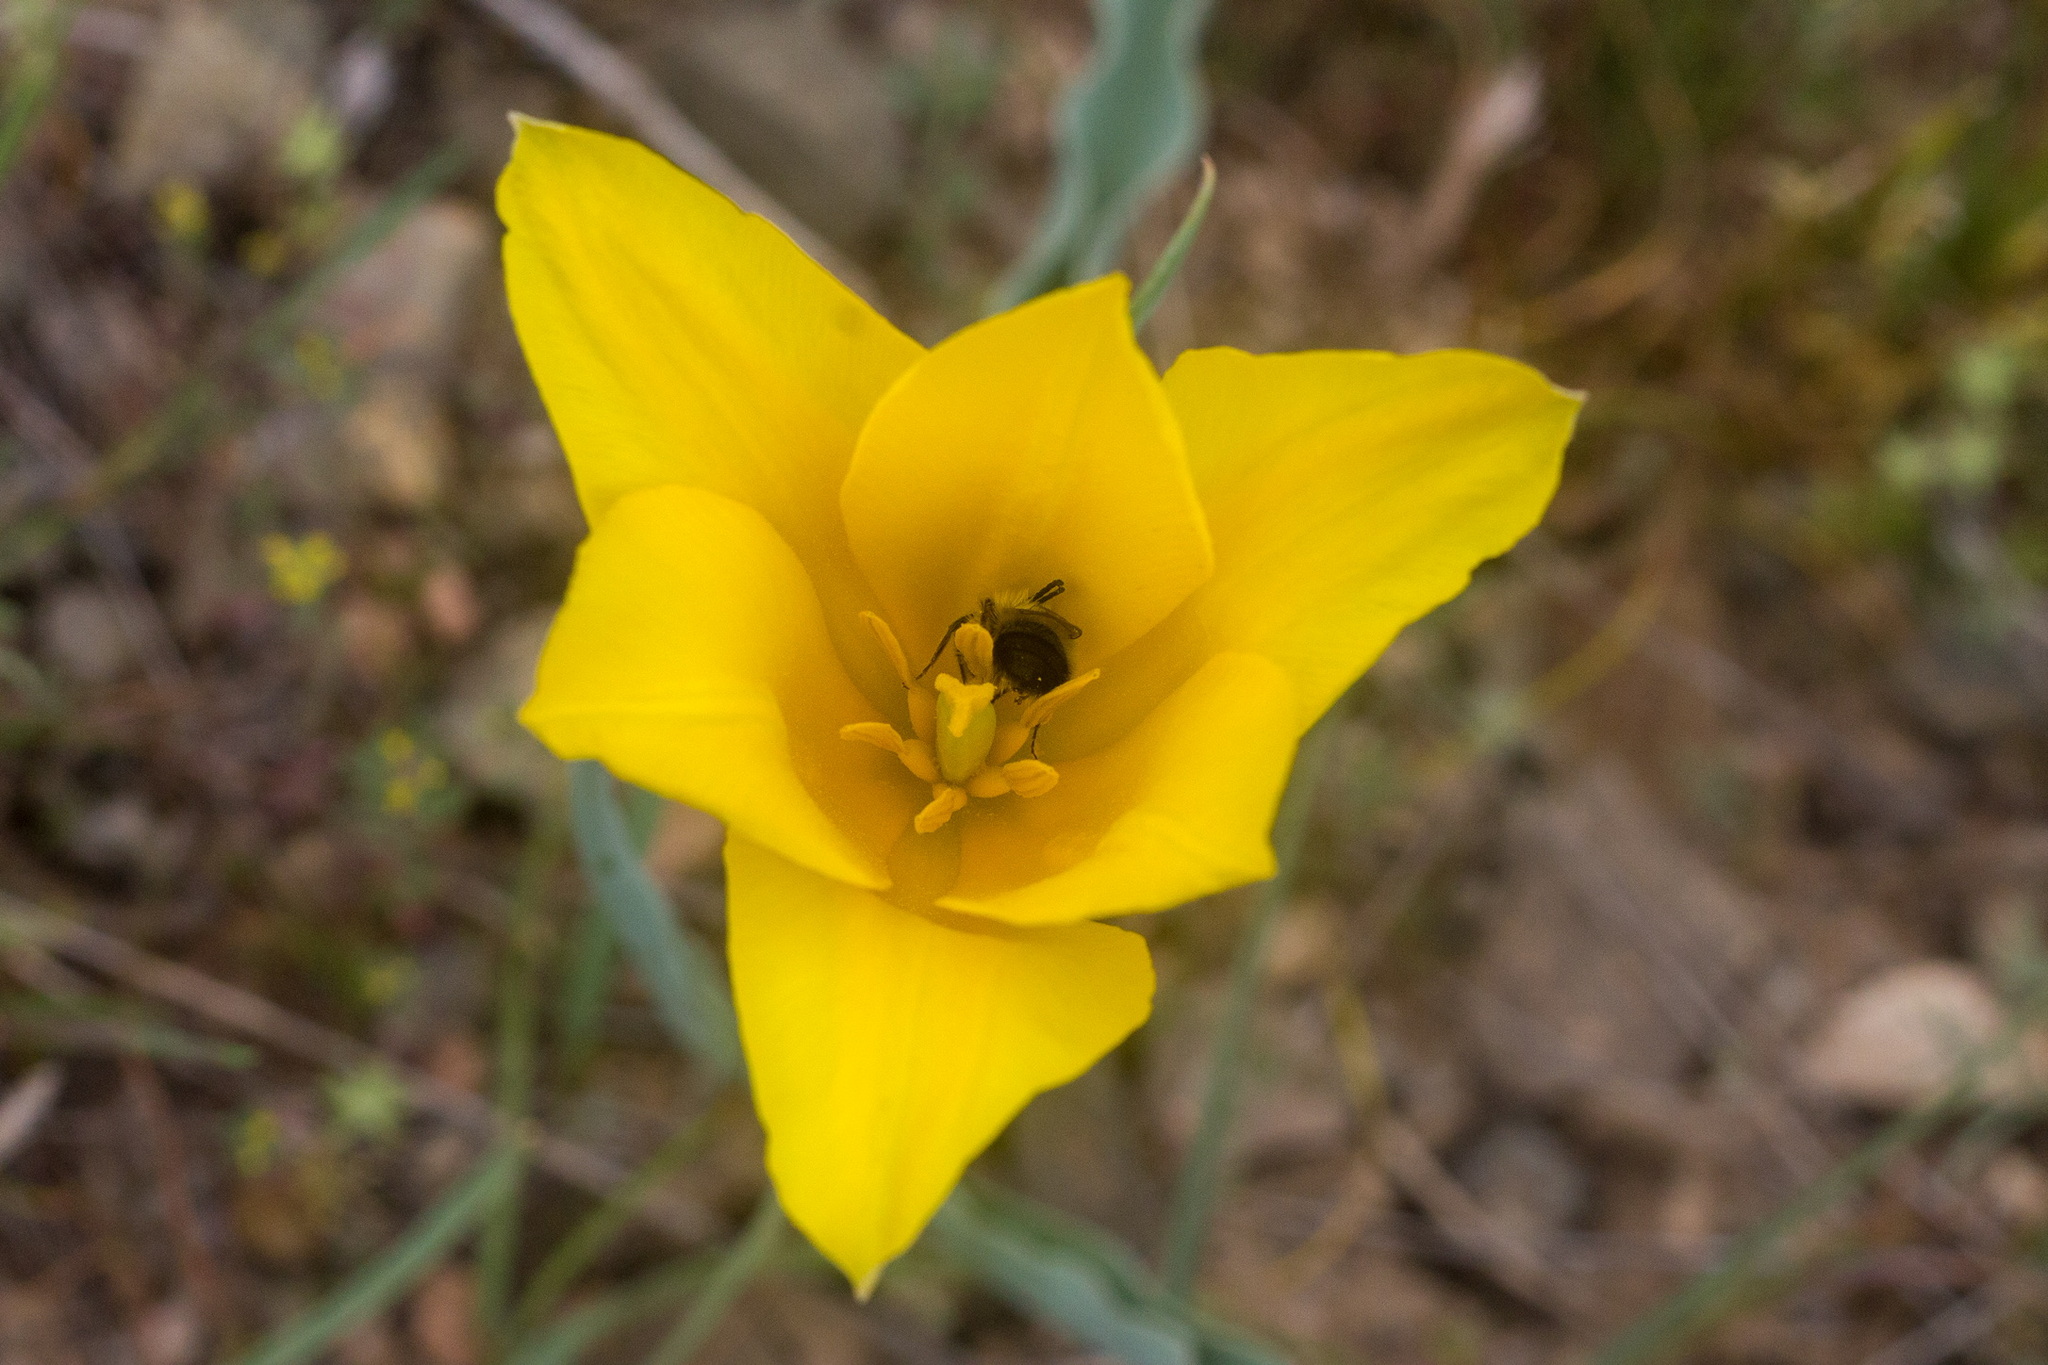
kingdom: Plantae
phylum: Tracheophyta
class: Liliopsida
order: Liliales
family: Liliaceae
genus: Tulipa
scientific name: Tulipa kolpakowskiana
